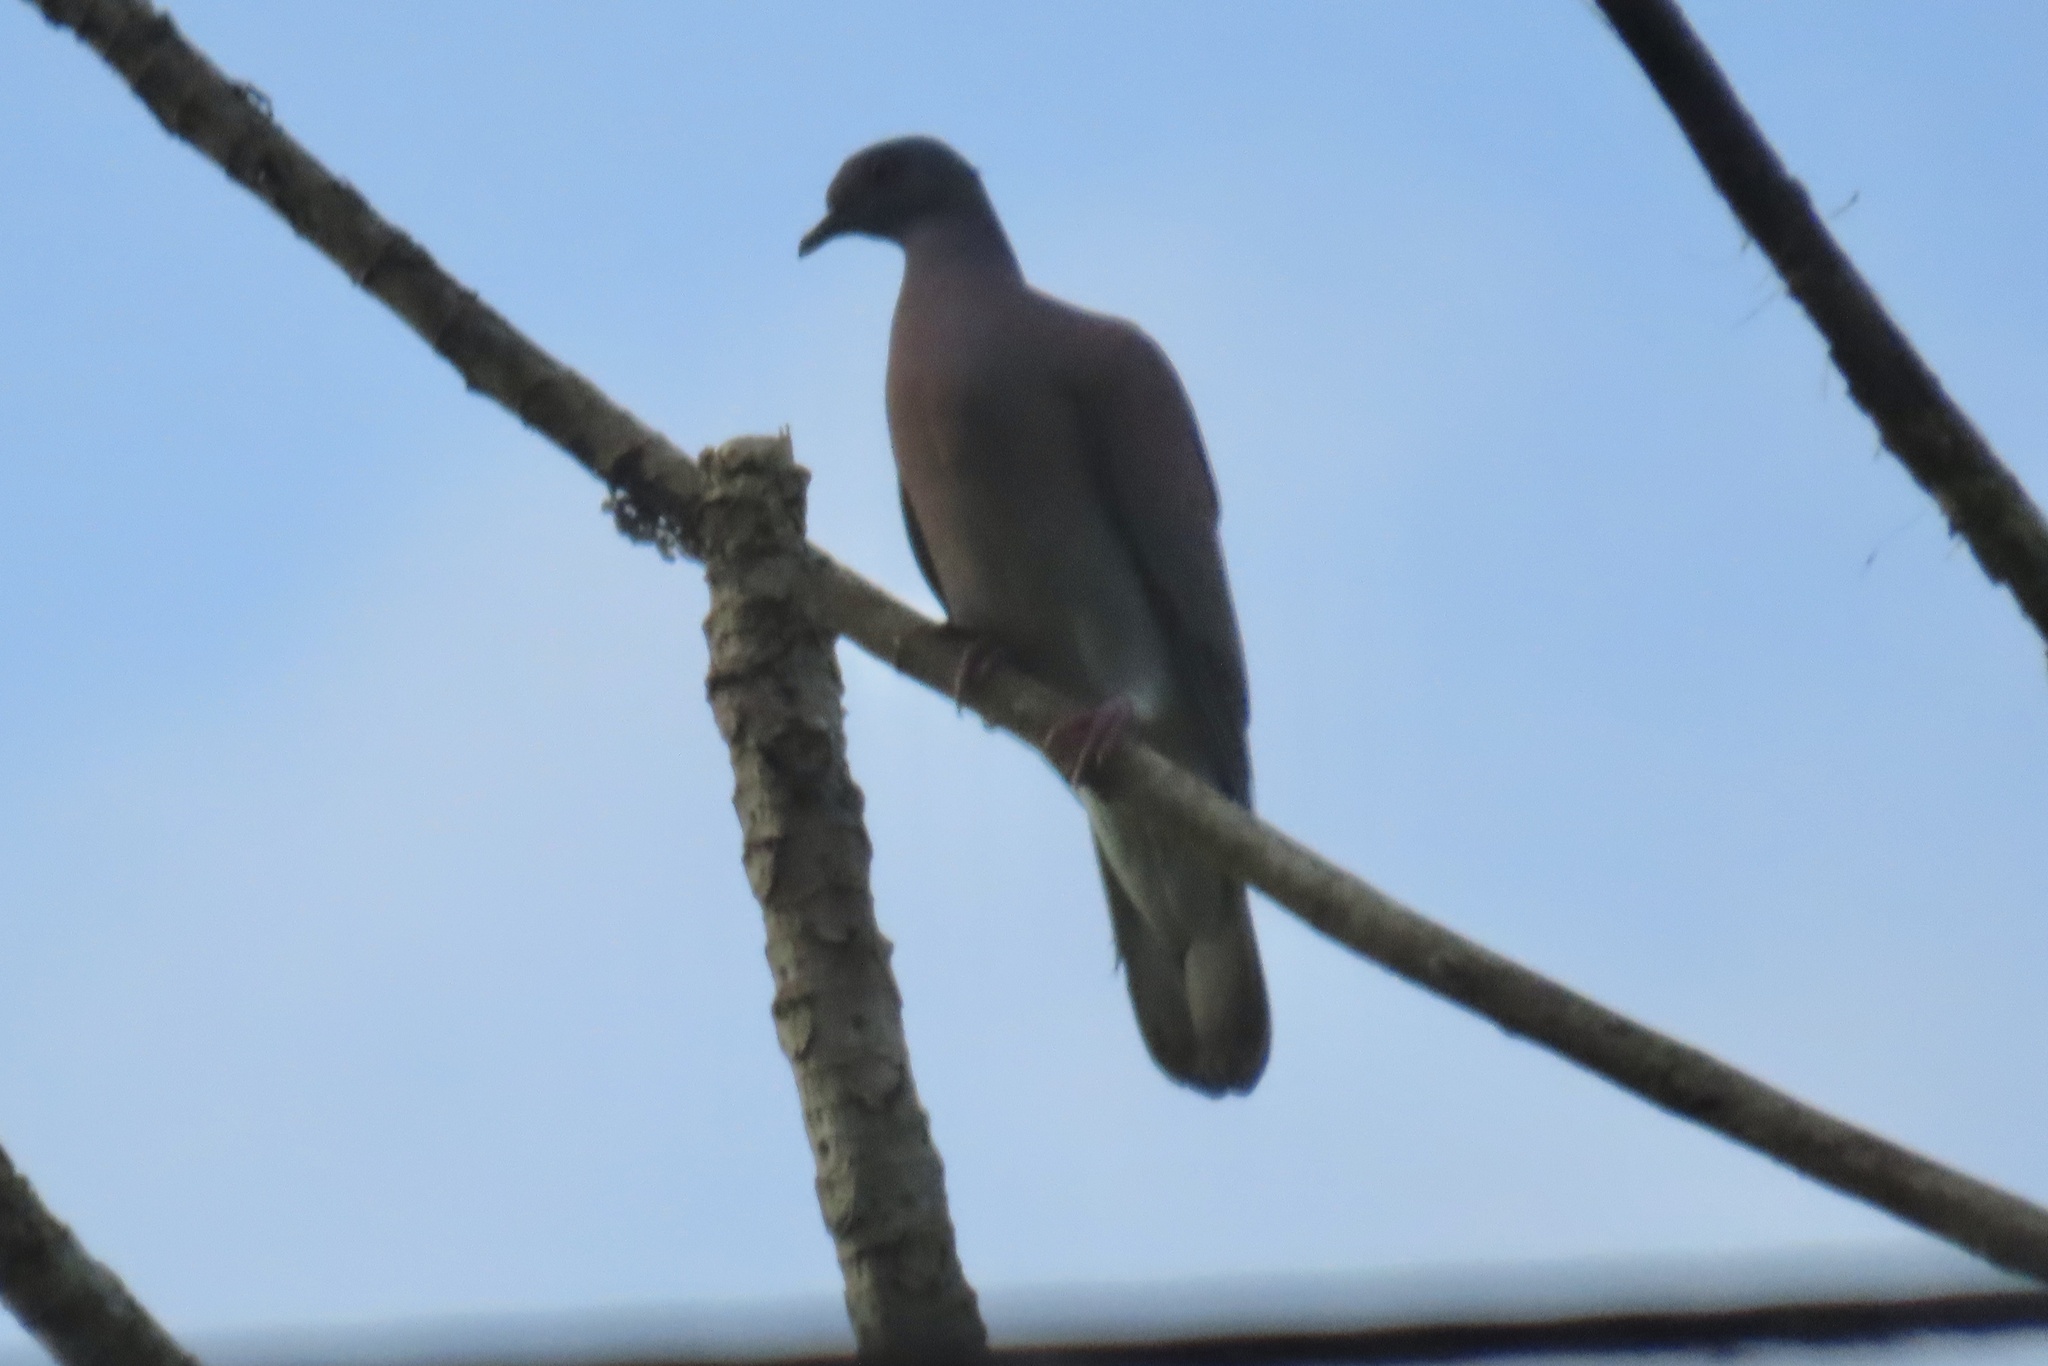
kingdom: Animalia
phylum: Chordata
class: Aves
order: Columbiformes
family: Columbidae
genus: Patagioenas
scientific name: Patagioenas cayennensis
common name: Pale-vented pigeon
